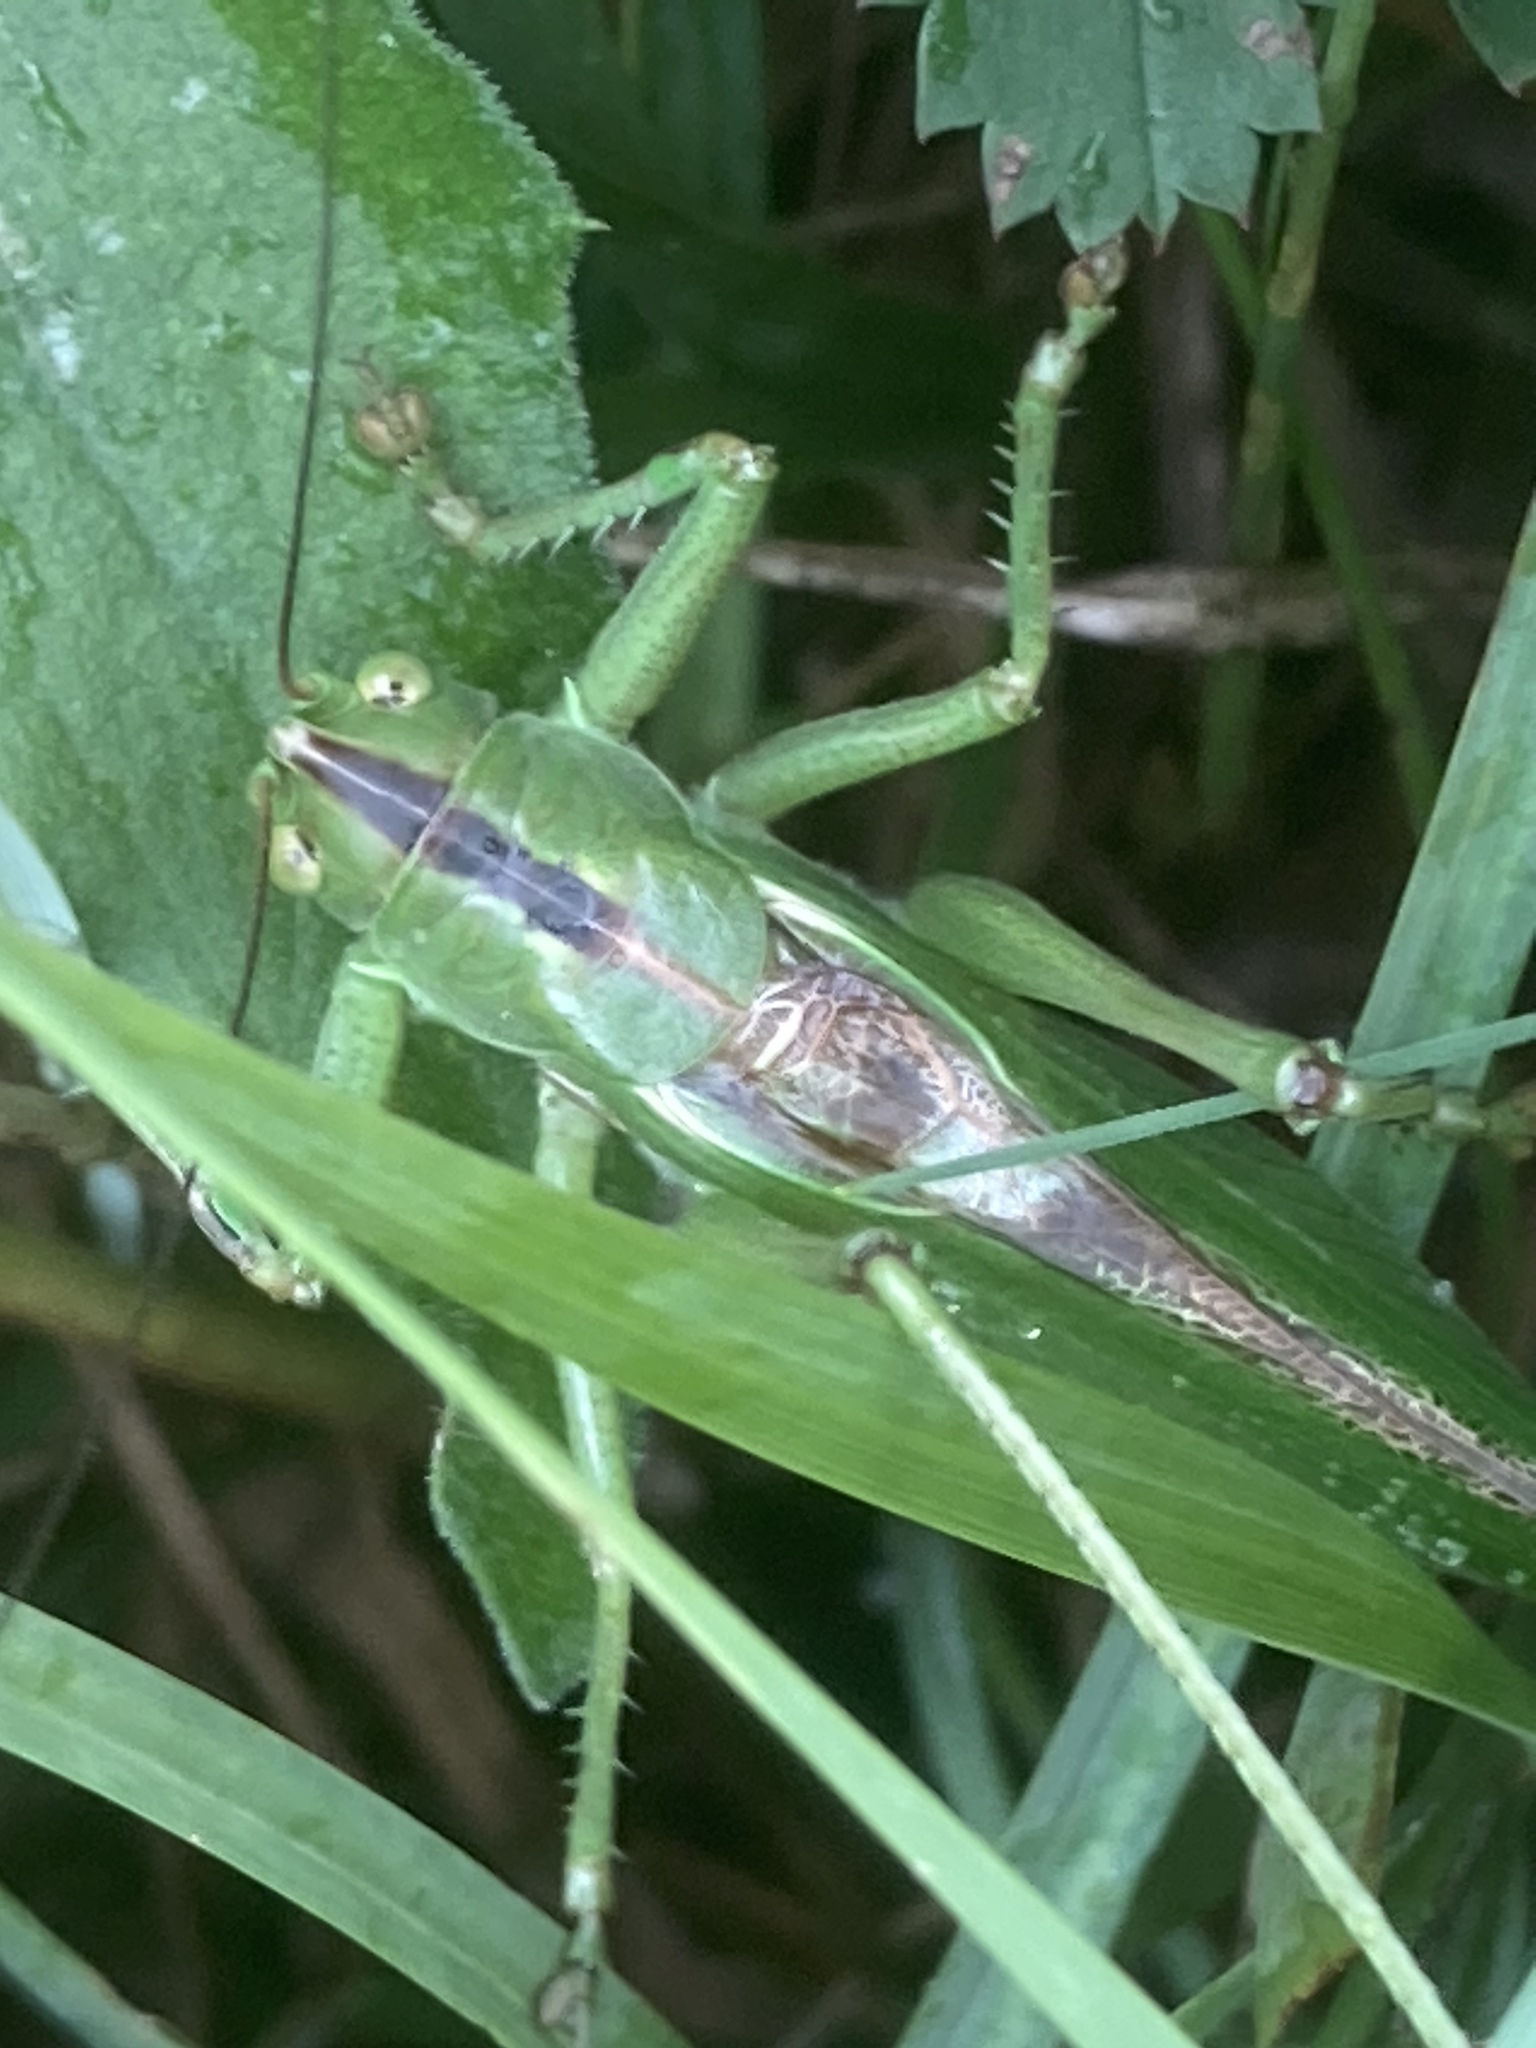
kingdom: Animalia
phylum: Arthropoda
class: Insecta
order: Orthoptera
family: Tettigoniidae
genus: Tettigonia
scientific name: Tettigonia viridissima
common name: Great green bush-cricket
